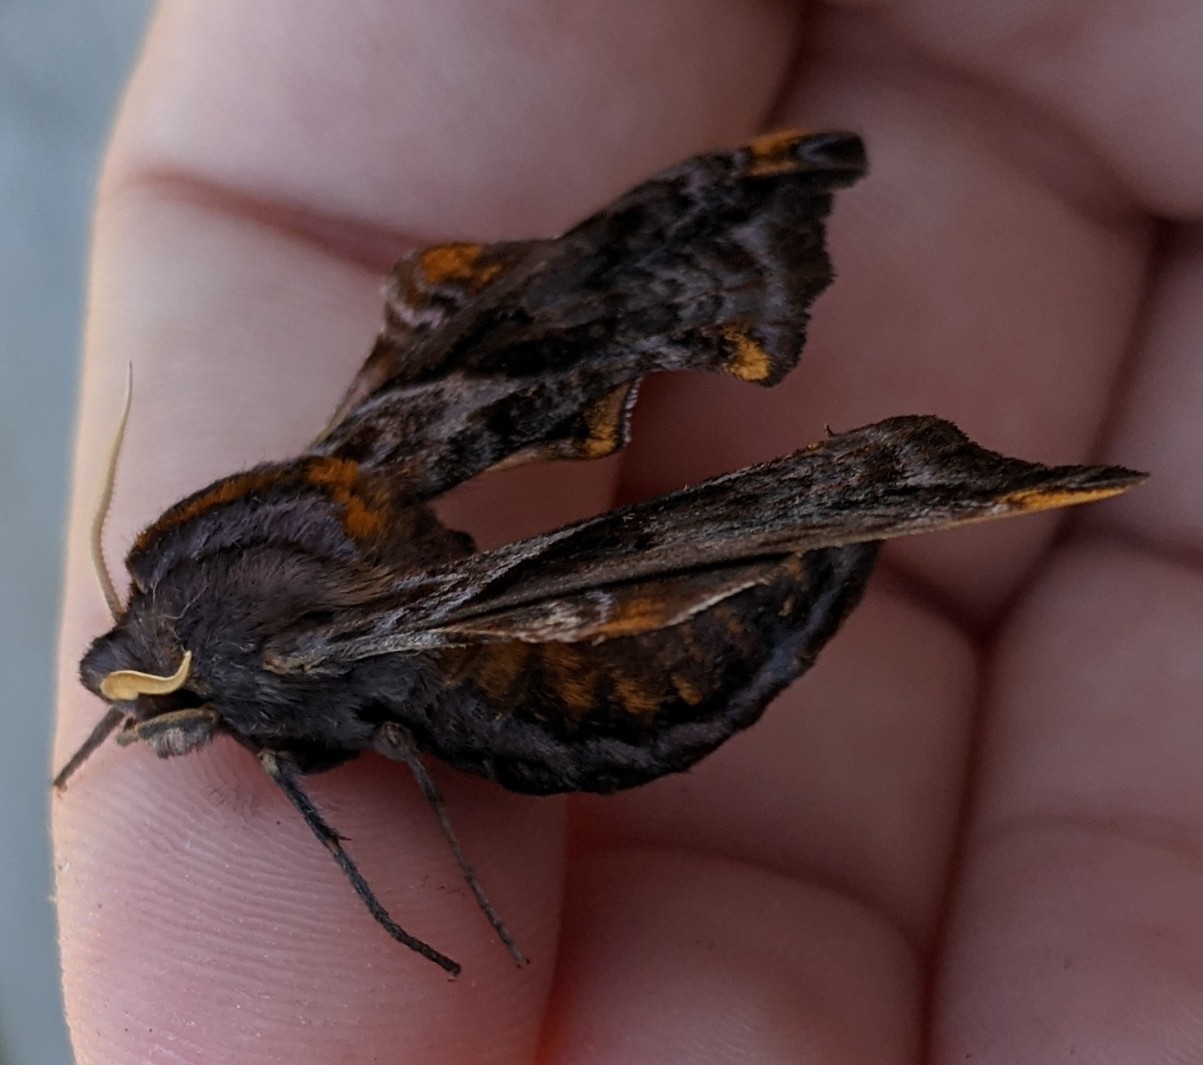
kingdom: Animalia
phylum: Arthropoda
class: Insecta
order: Lepidoptera
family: Sphingidae
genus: Paonias
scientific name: Paonias myops
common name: Small-eyed sphinx
